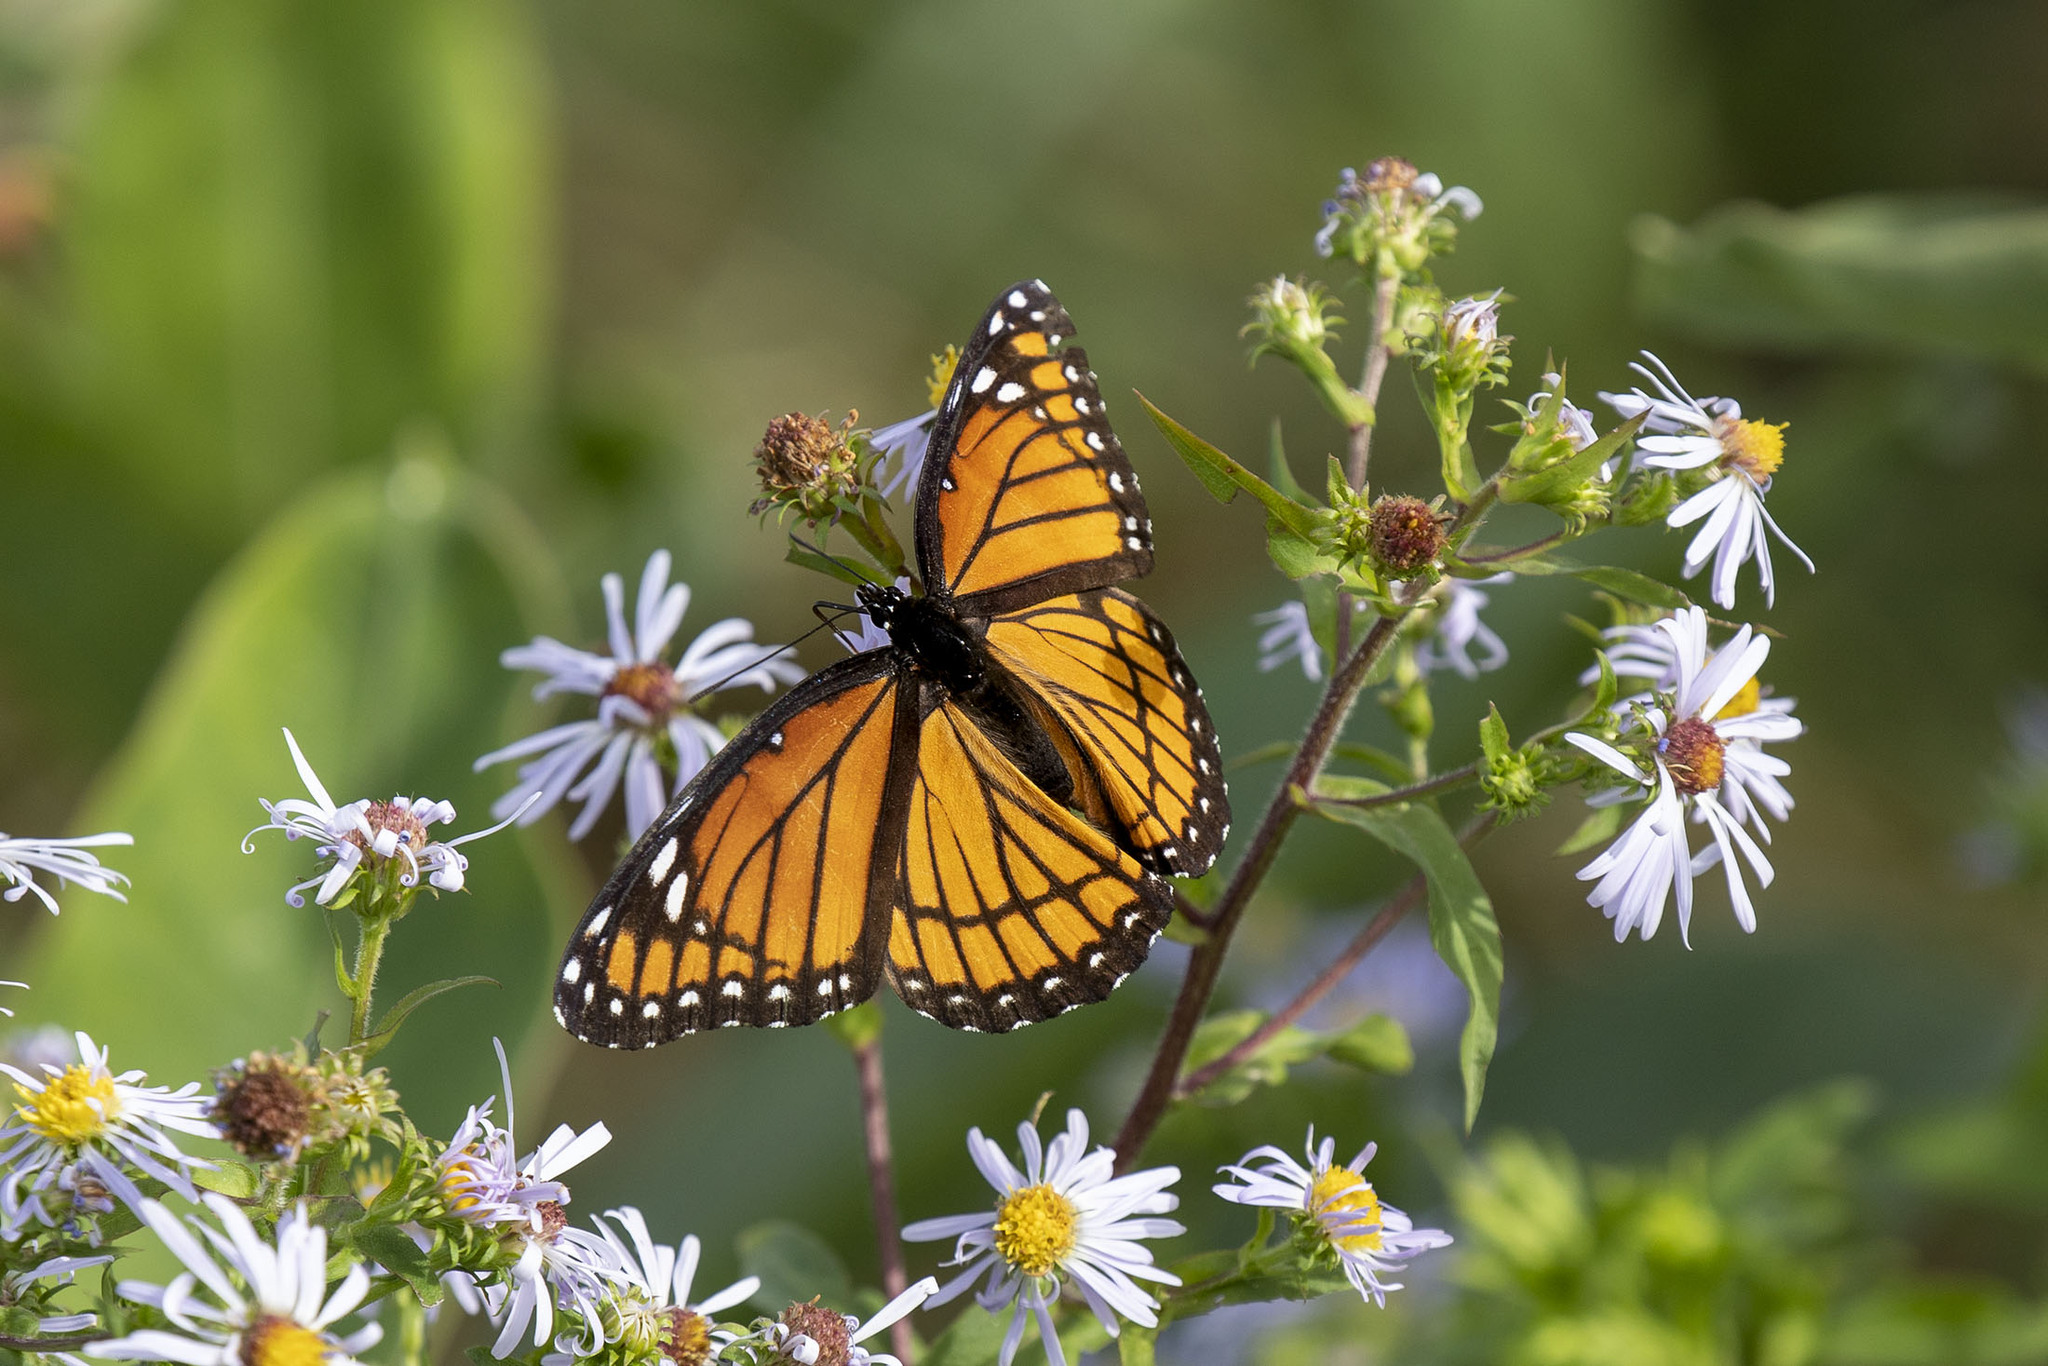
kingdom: Animalia
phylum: Arthropoda
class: Insecta
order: Lepidoptera
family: Nymphalidae
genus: Limenitis
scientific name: Limenitis archippus
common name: Viceroy
